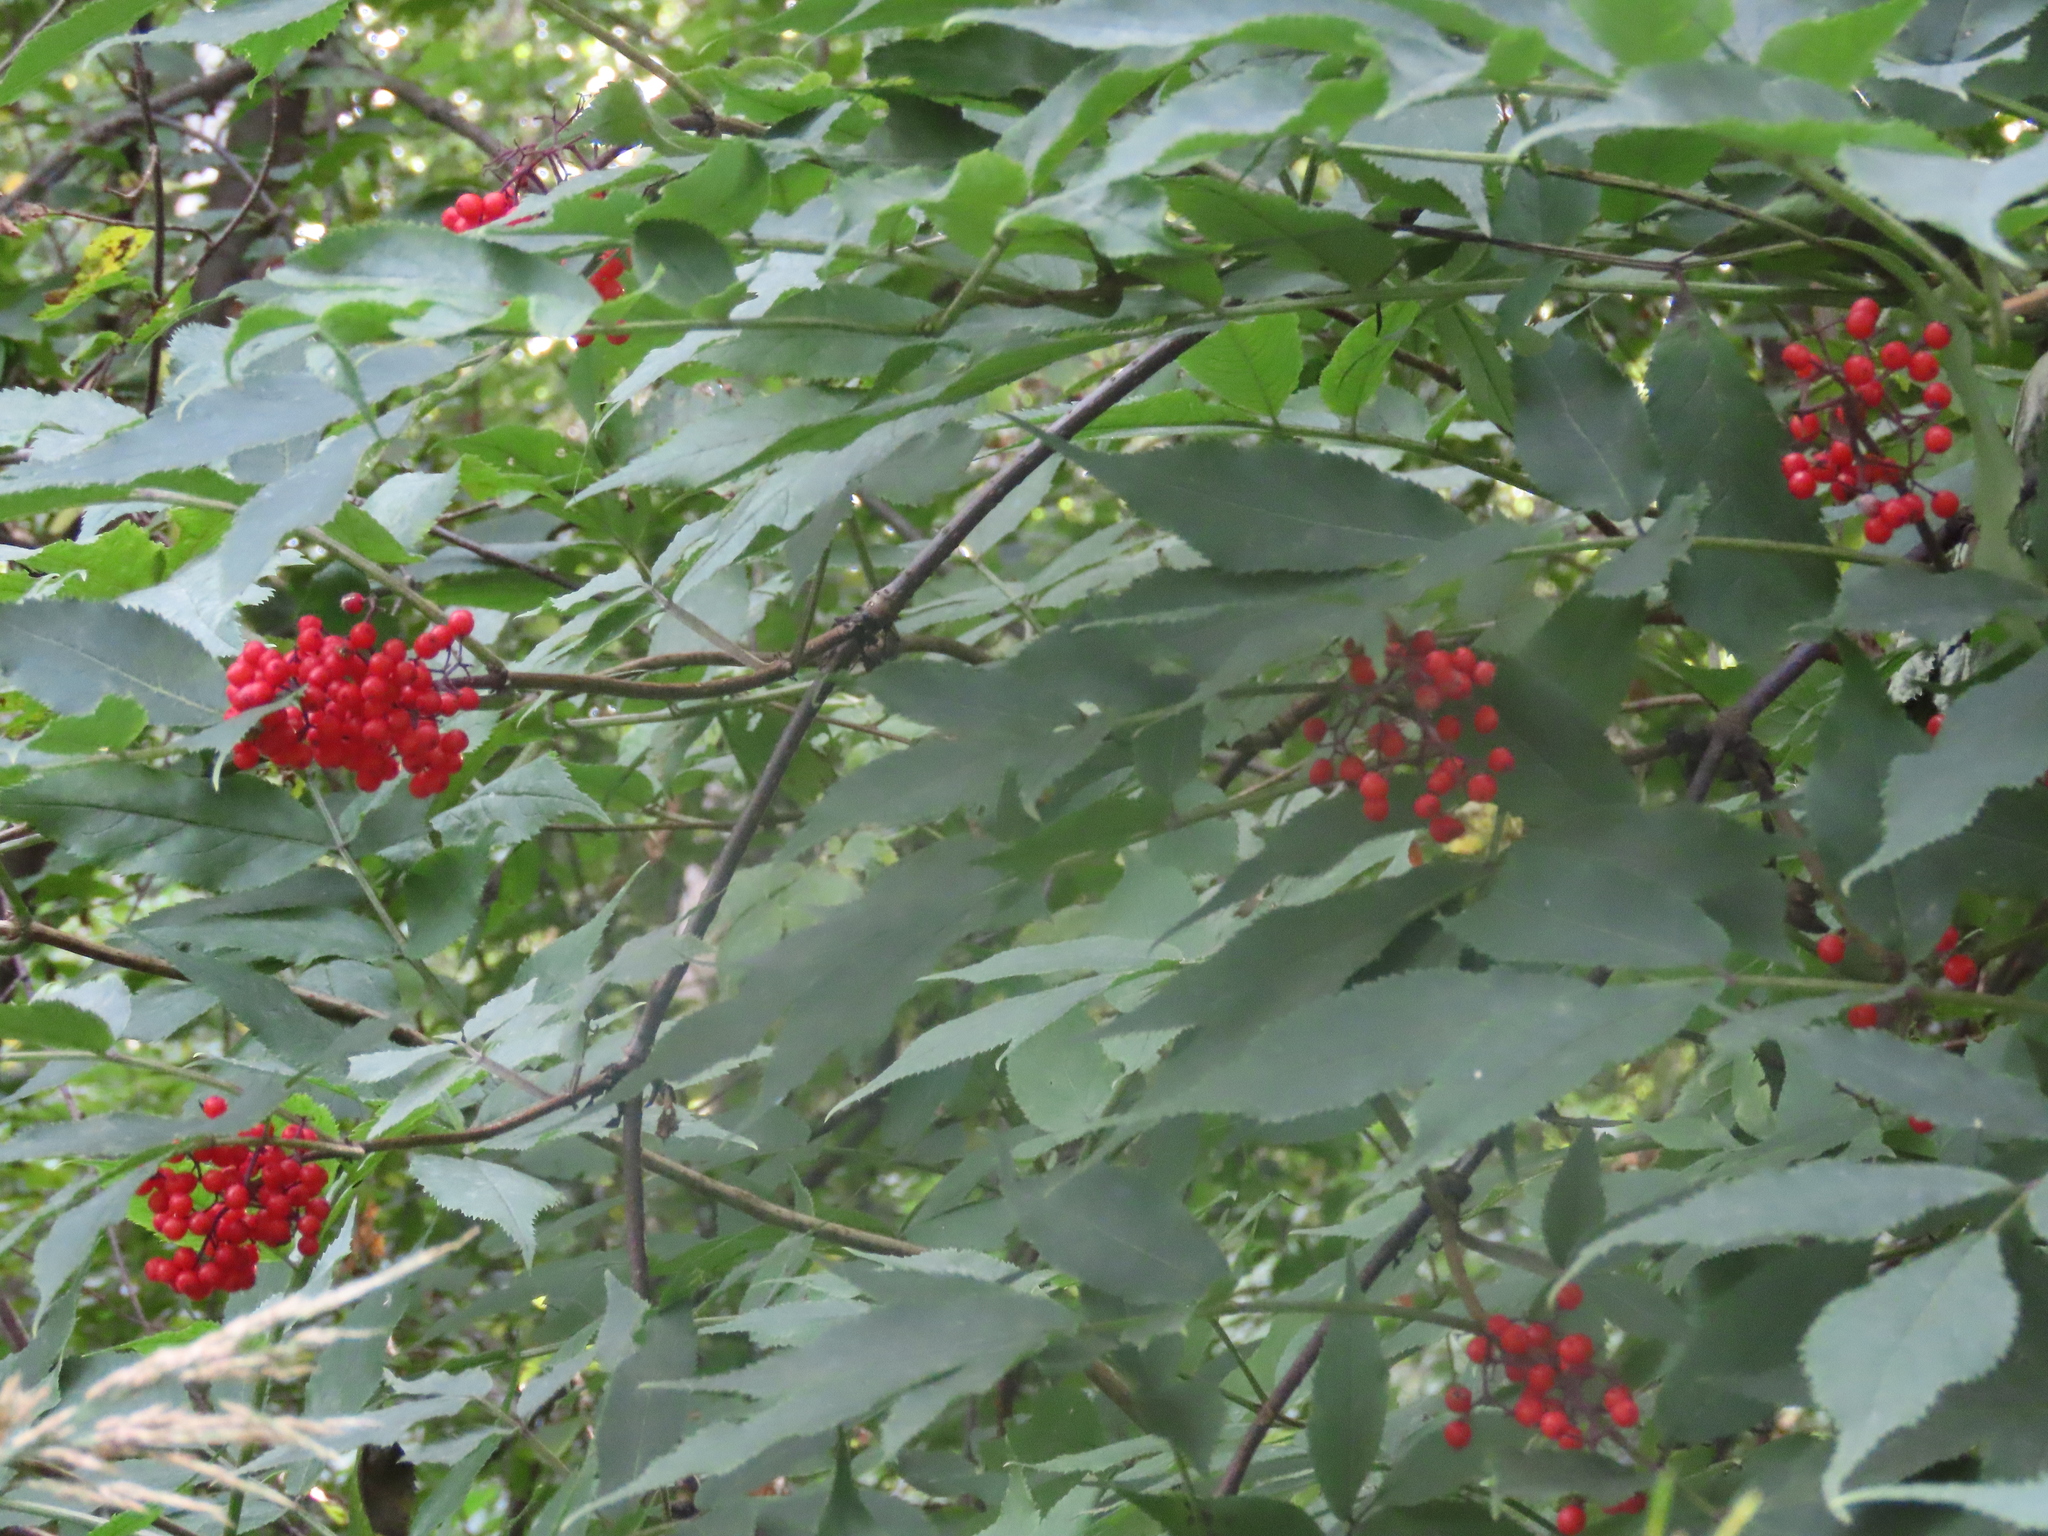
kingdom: Plantae
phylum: Tracheophyta
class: Magnoliopsida
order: Dipsacales
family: Viburnaceae
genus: Sambucus
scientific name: Sambucus racemosa
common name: Red-berried elder
